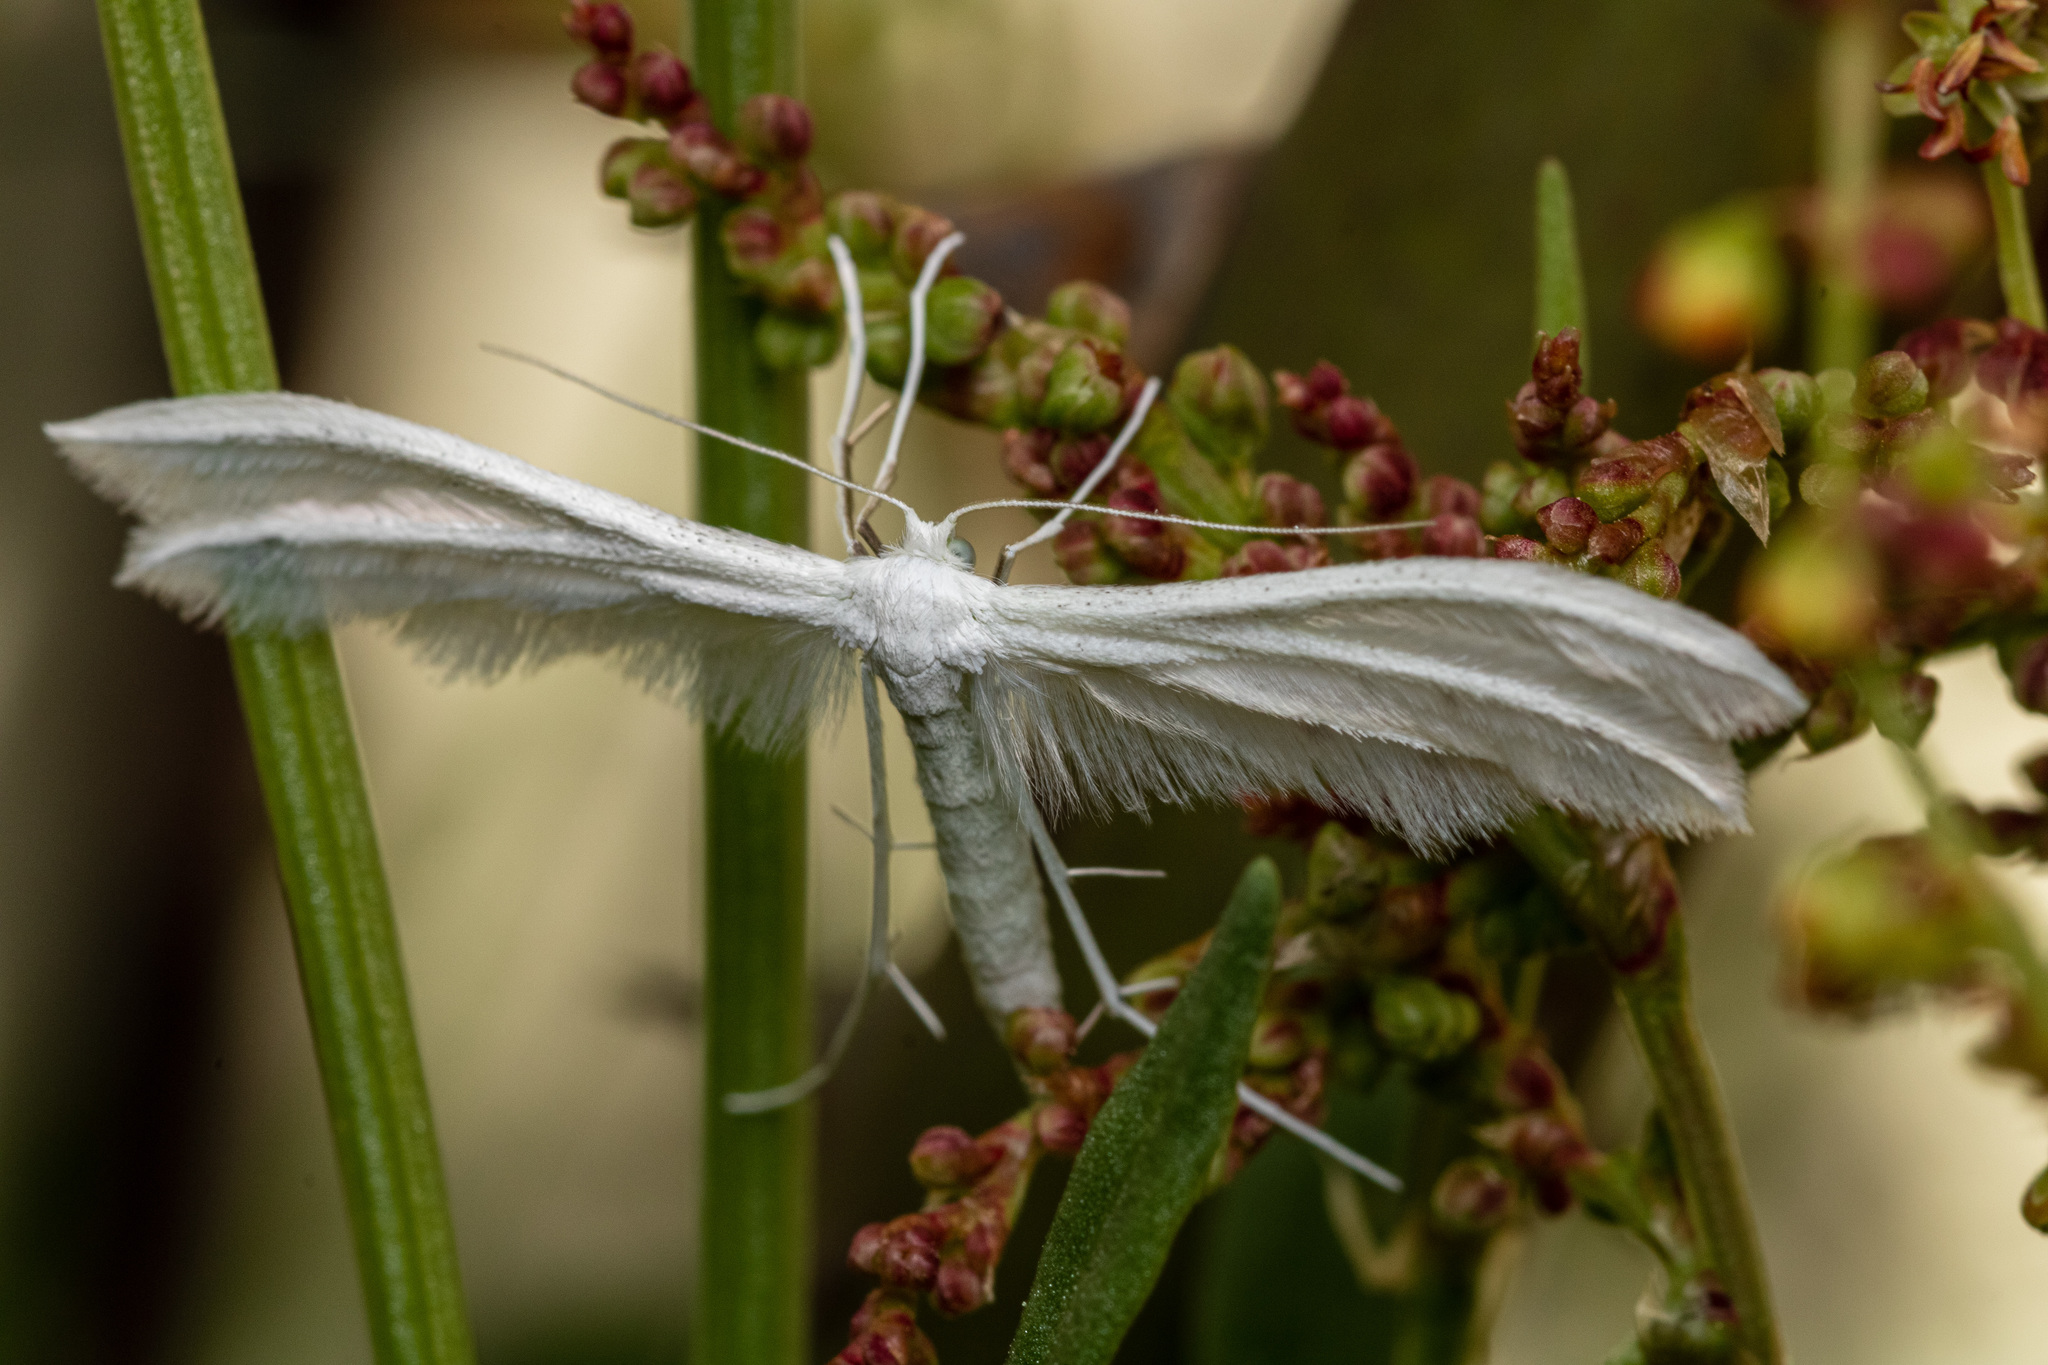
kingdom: Animalia
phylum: Arthropoda
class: Insecta
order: Lepidoptera
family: Pterophoridae
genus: Pterophorus
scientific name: Pterophorus pentadactyla
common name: White plume moth
